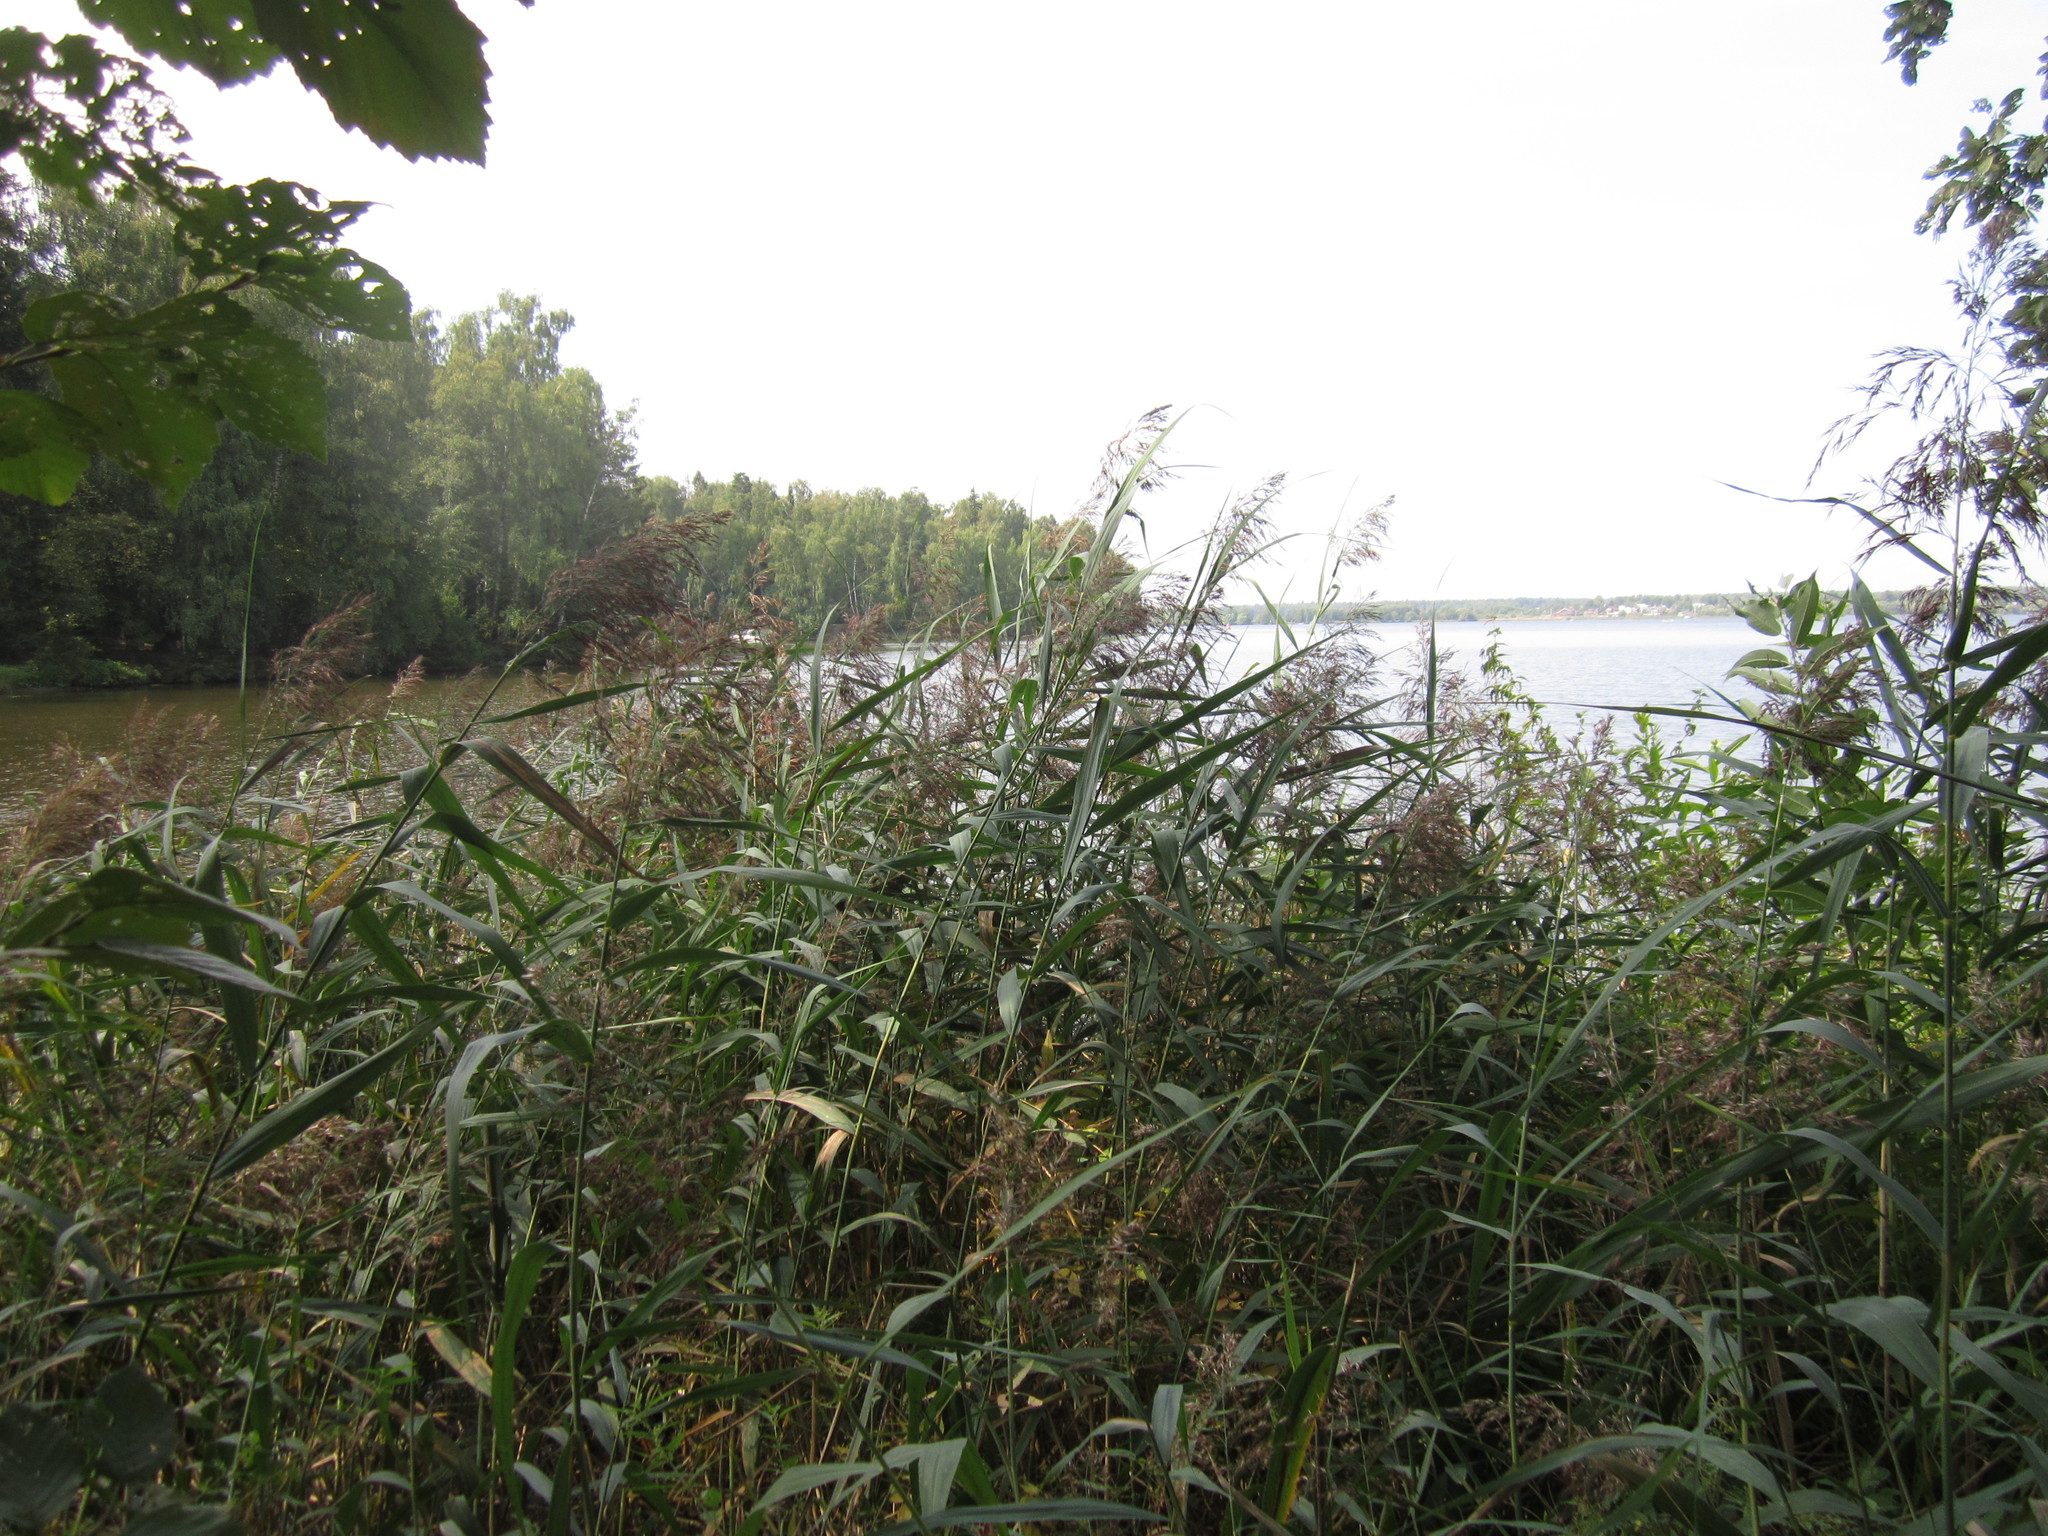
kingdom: Plantae
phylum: Tracheophyta
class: Liliopsida
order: Poales
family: Poaceae
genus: Phragmites
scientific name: Phragmites australis
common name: Common reed
